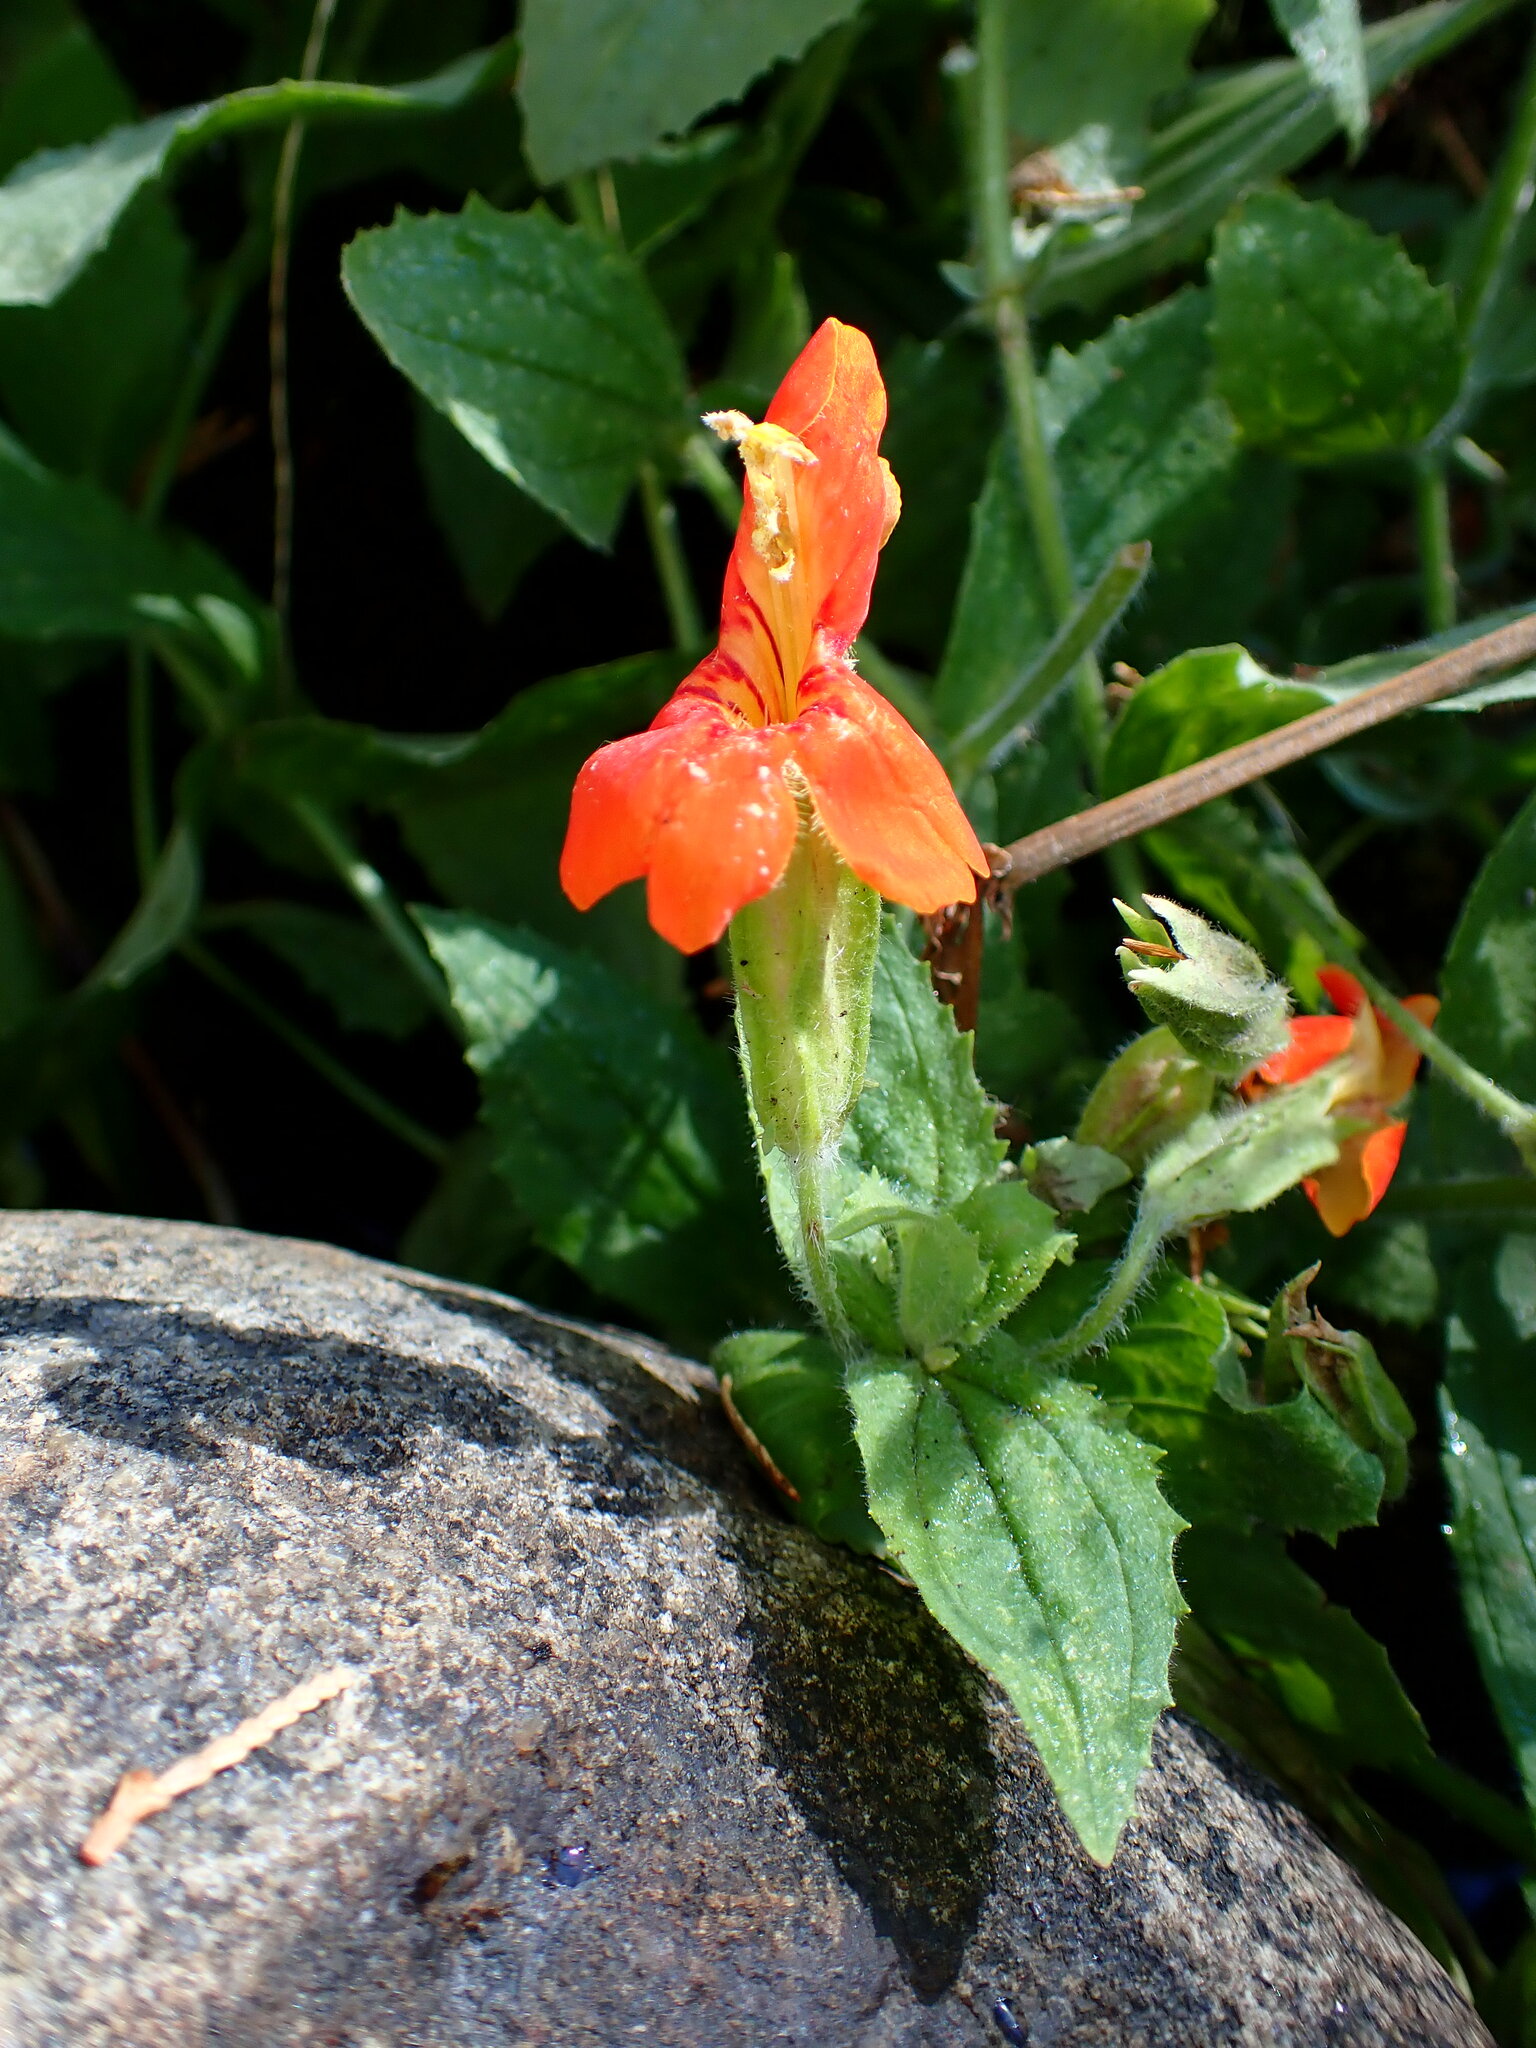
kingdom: Plantae
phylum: Tracheophyta
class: Magnoliopsida
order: Lamiales
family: Phrymaceae
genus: Erythranthe
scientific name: Erythranthe cardinalis
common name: Scarlet monkey-flower
